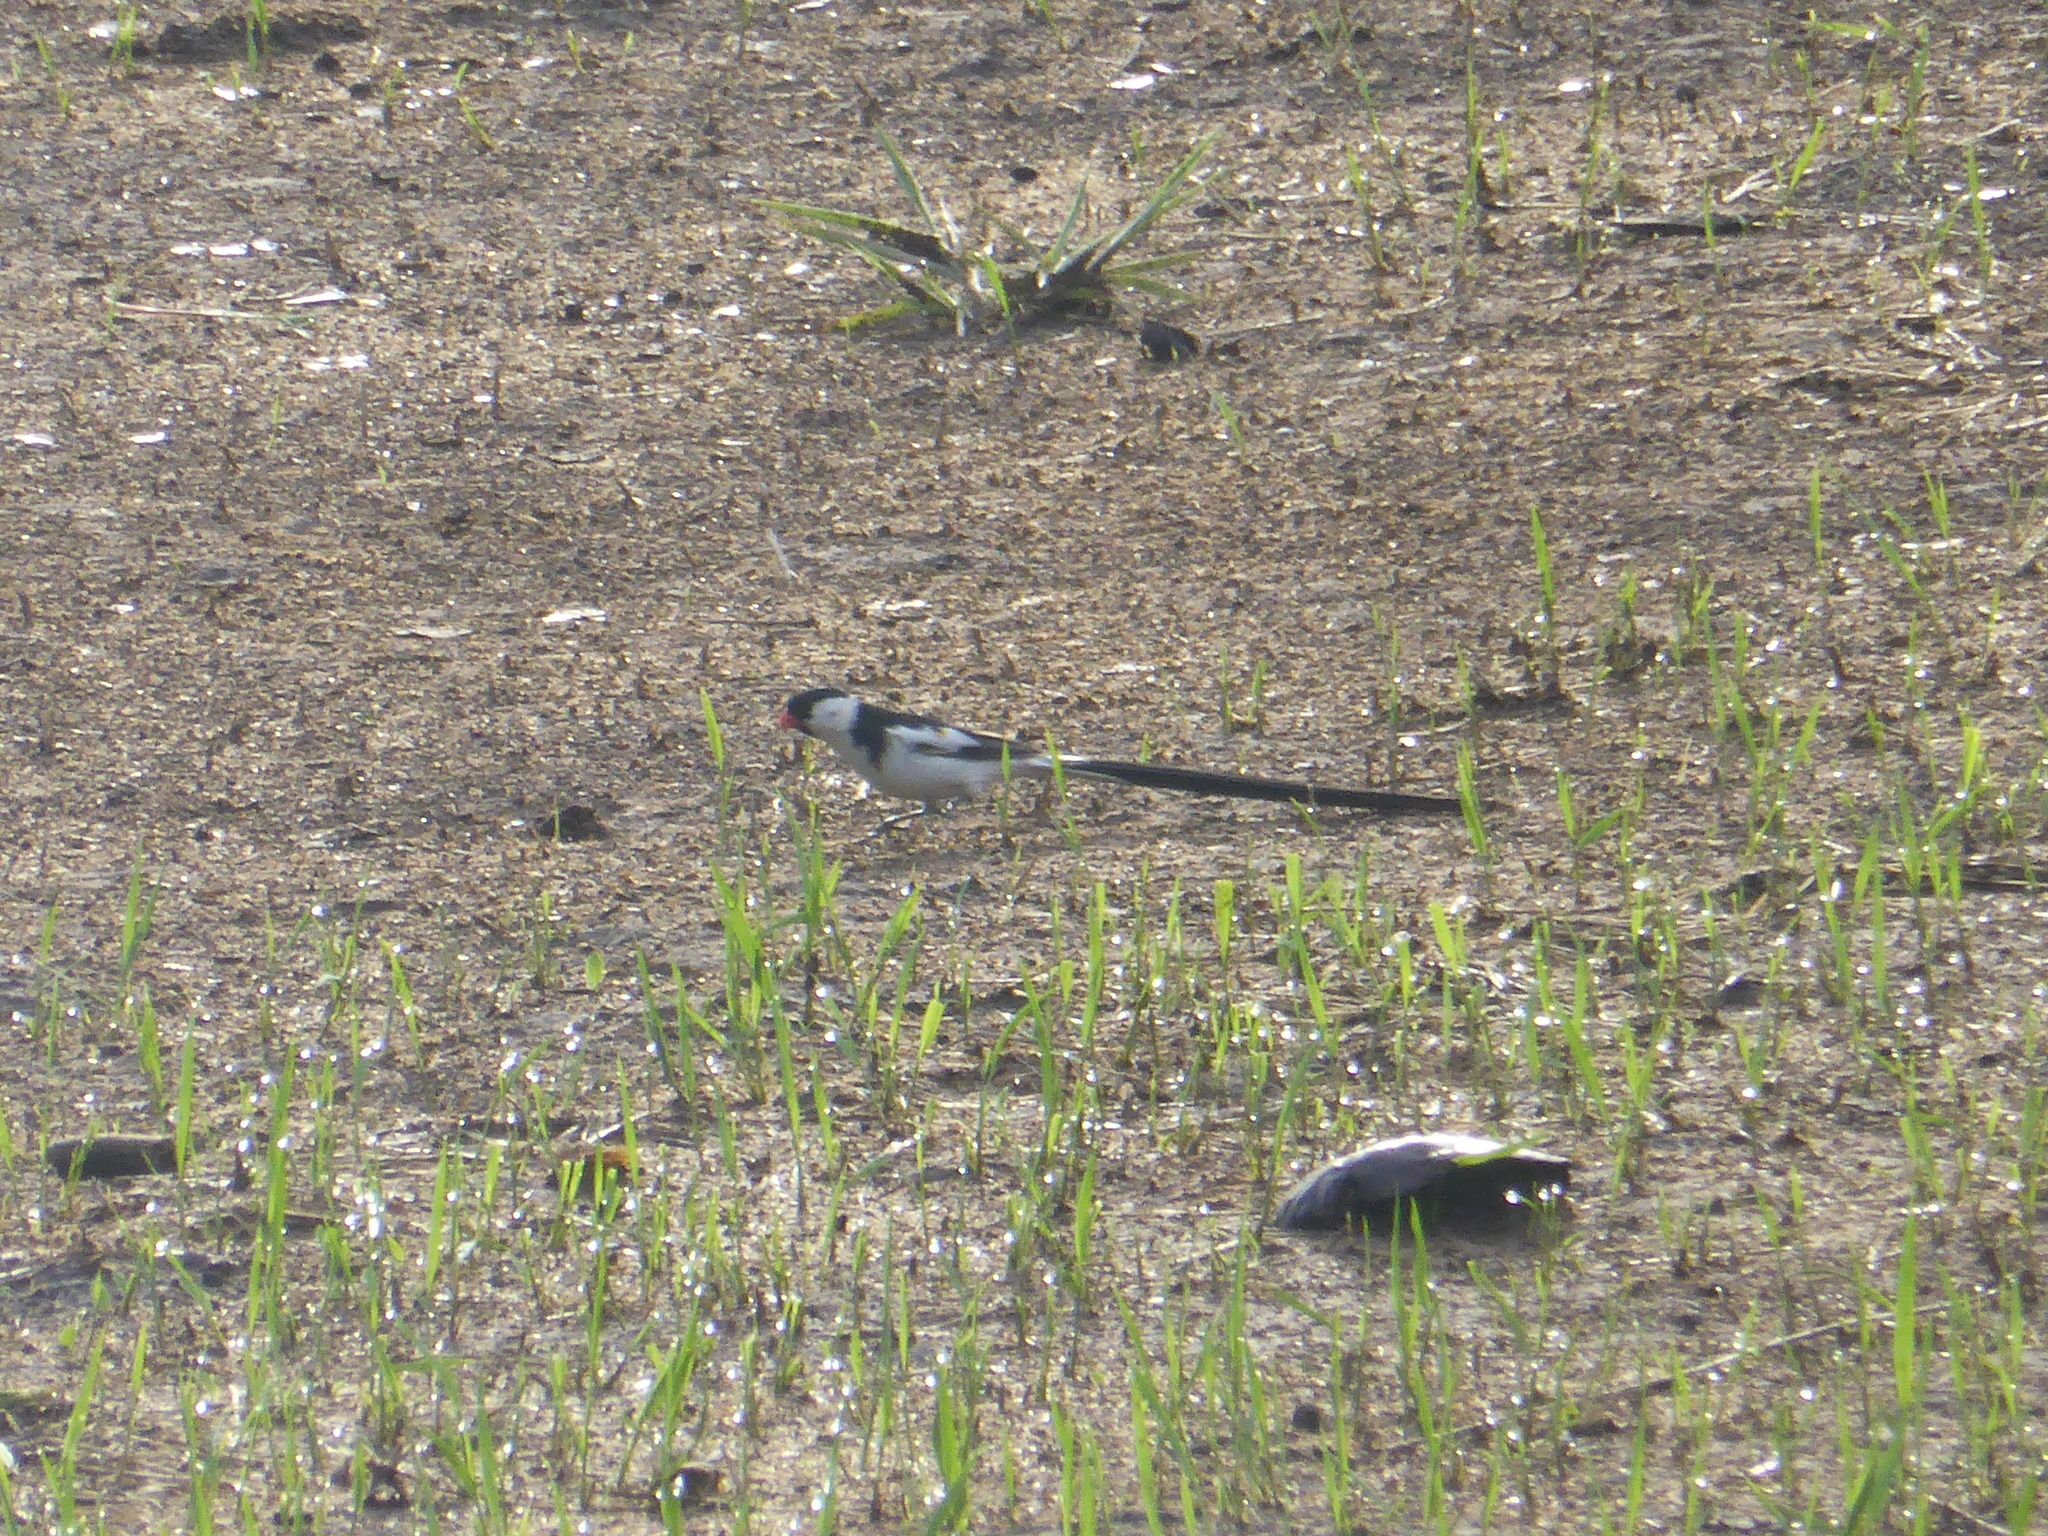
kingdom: Animalia
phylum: Chordata
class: Aves
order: Passeriformes
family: Viduidae
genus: Vidua
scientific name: Vidua macroura
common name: Pin-tailed whydah
